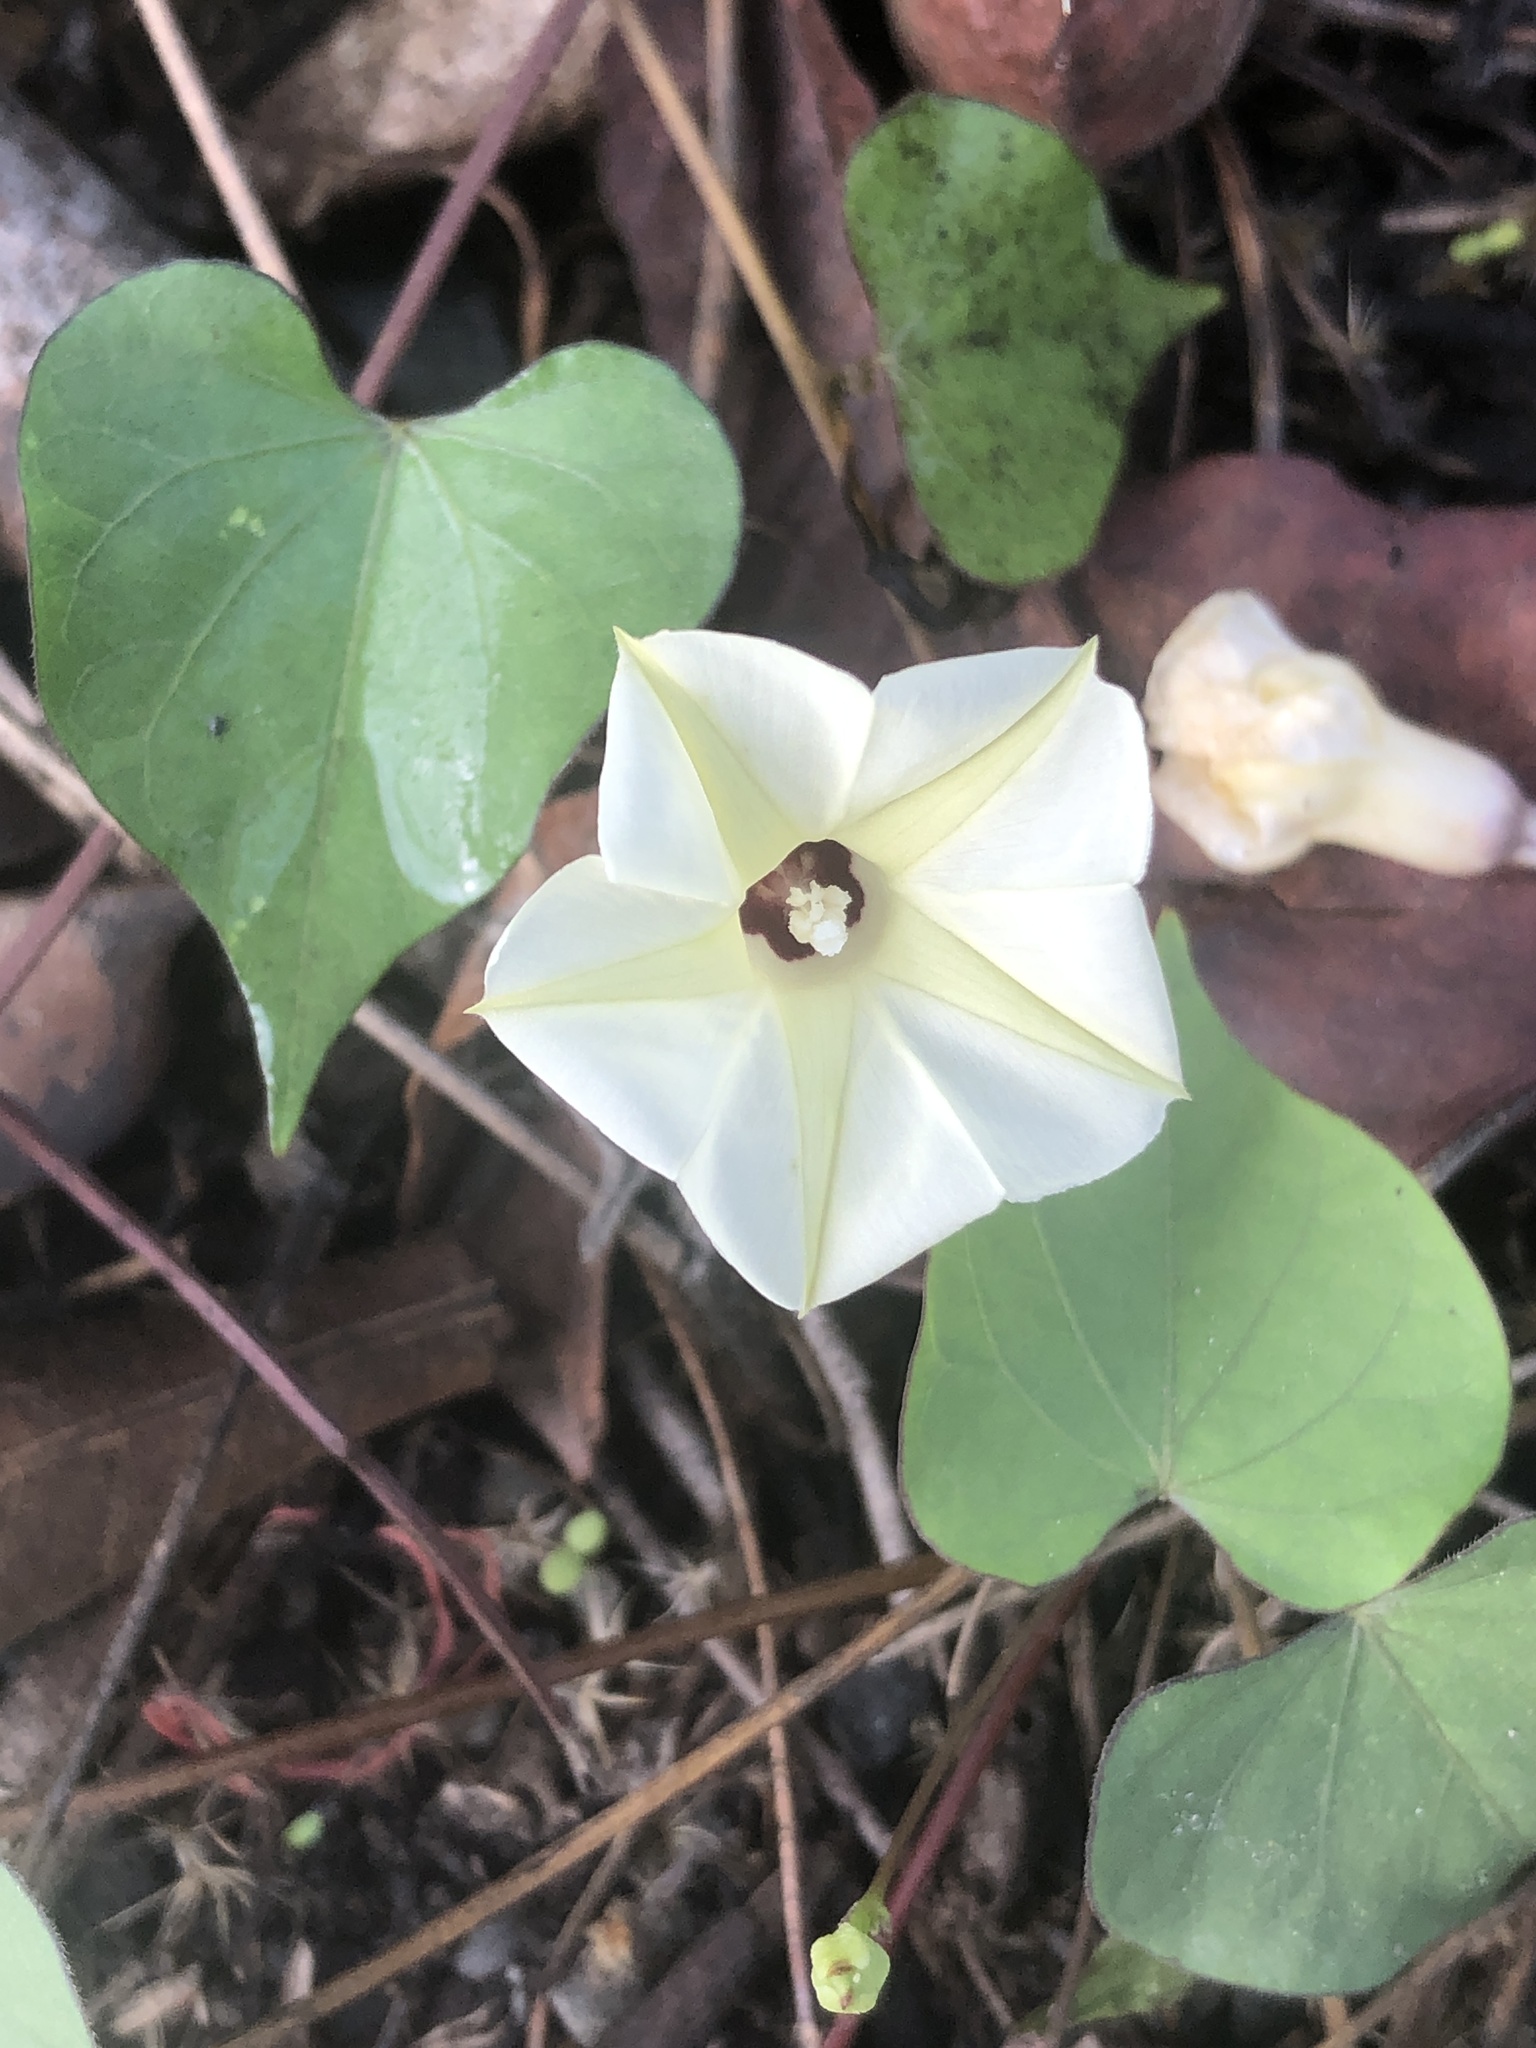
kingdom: Plantae
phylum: Tracheophyta
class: Magnoliopsida
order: Solanales
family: Convolvulaceae
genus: Ipomoea
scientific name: Ipomoea obscura
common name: Obscure morning-glory
